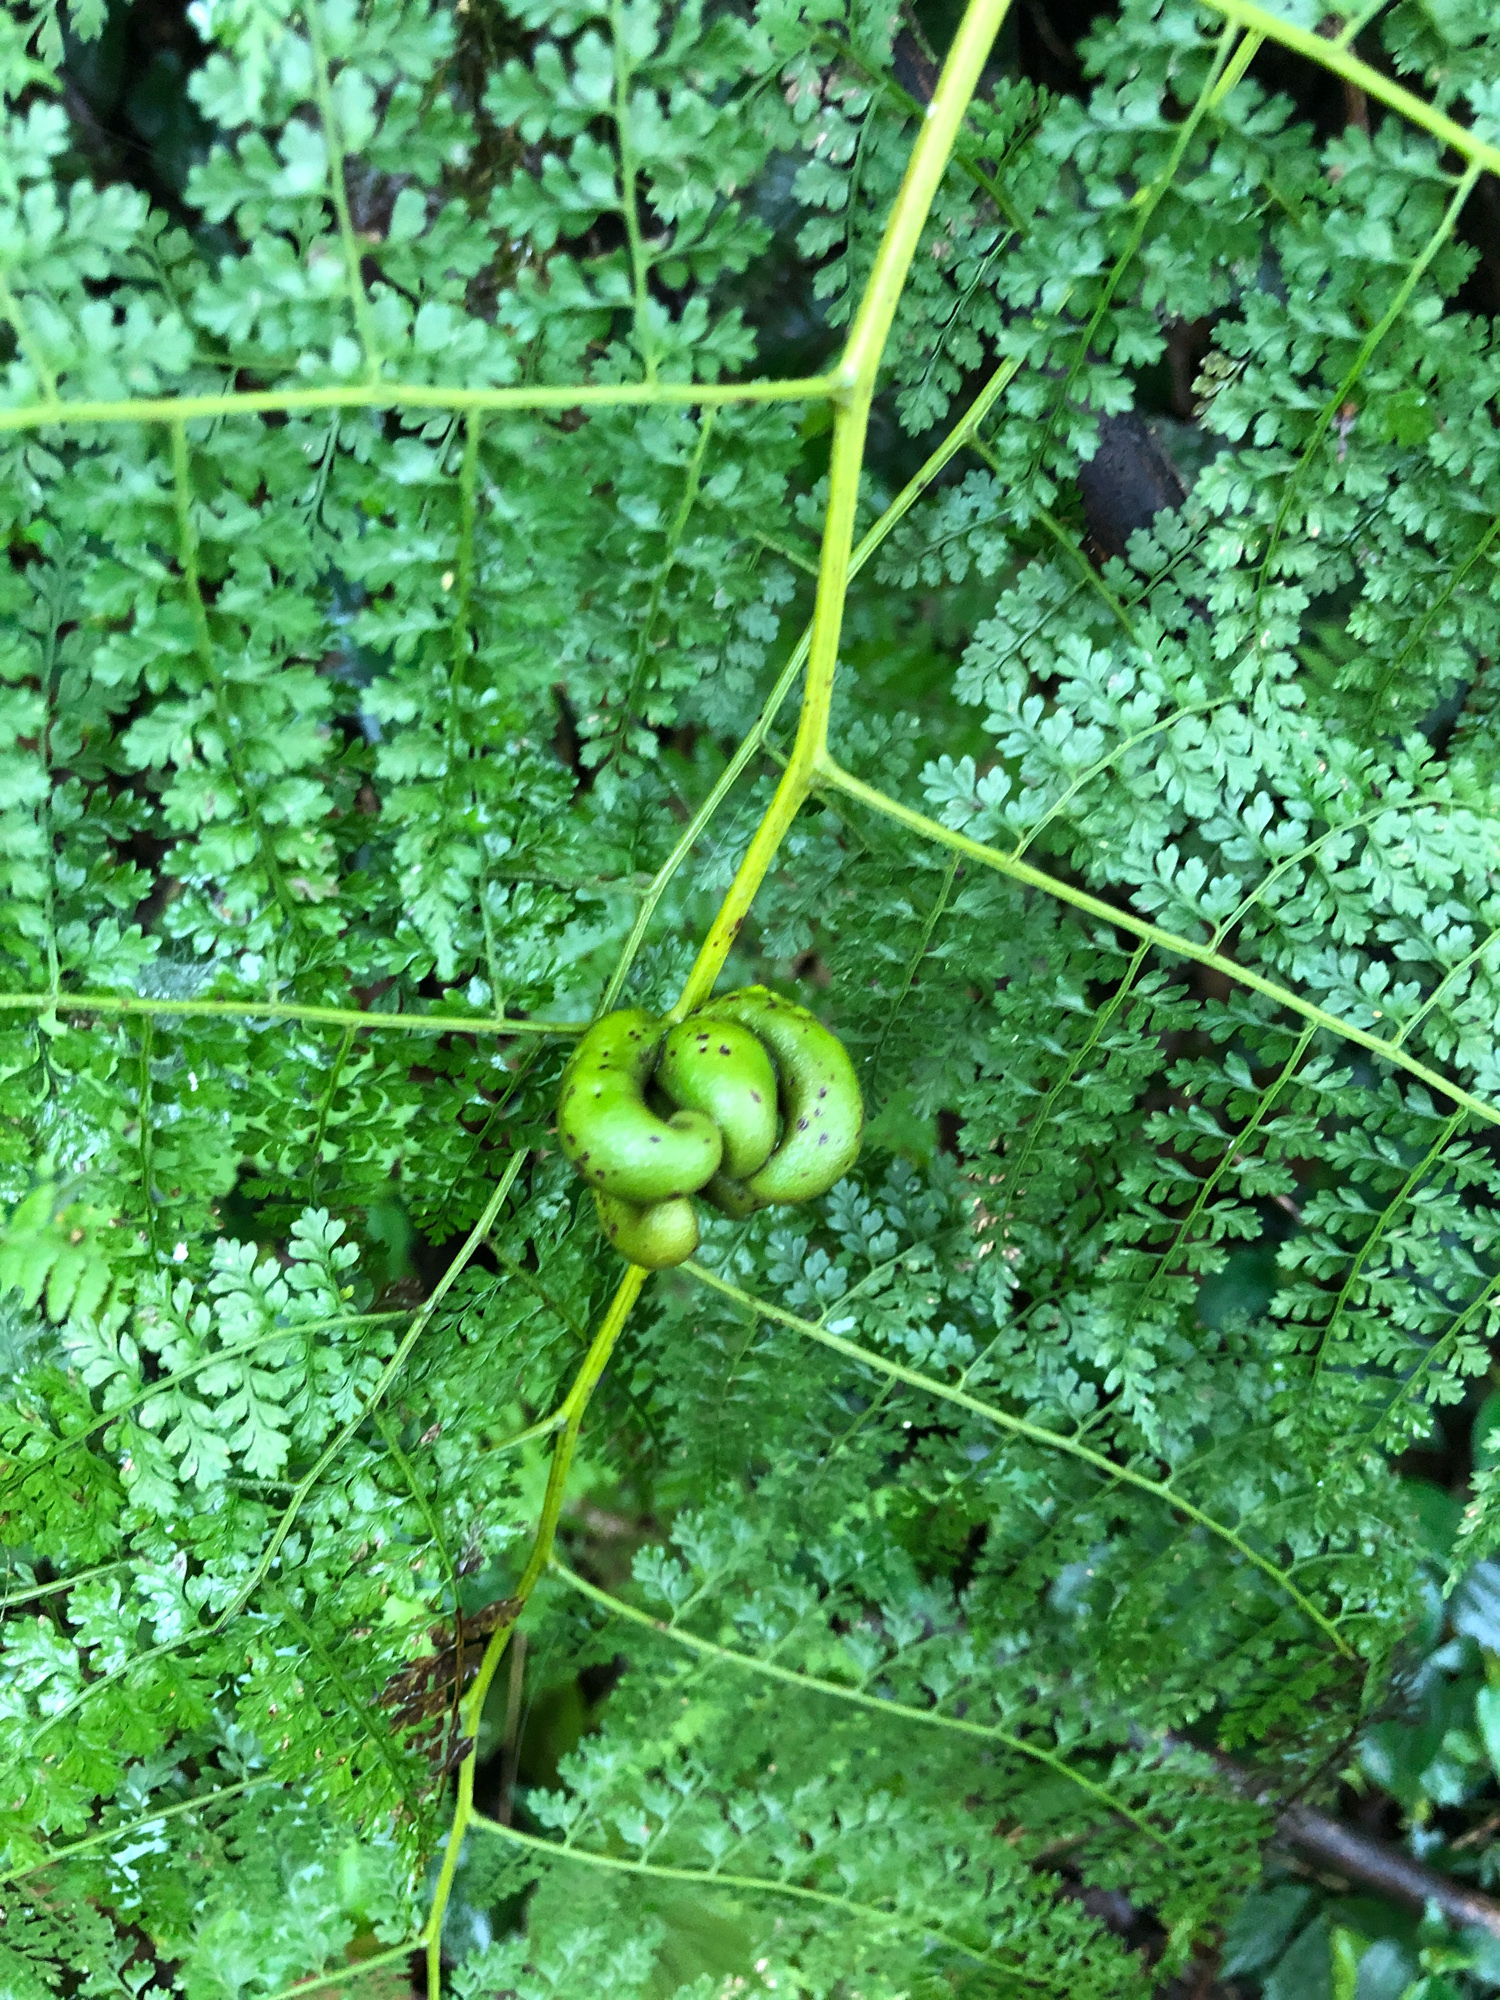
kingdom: Plantae
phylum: Tracheophyta
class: Polypodiopsida
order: Polypodiales
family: Dennstaedtiaceae
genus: Monachosorum
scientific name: Monachosorum henryi
